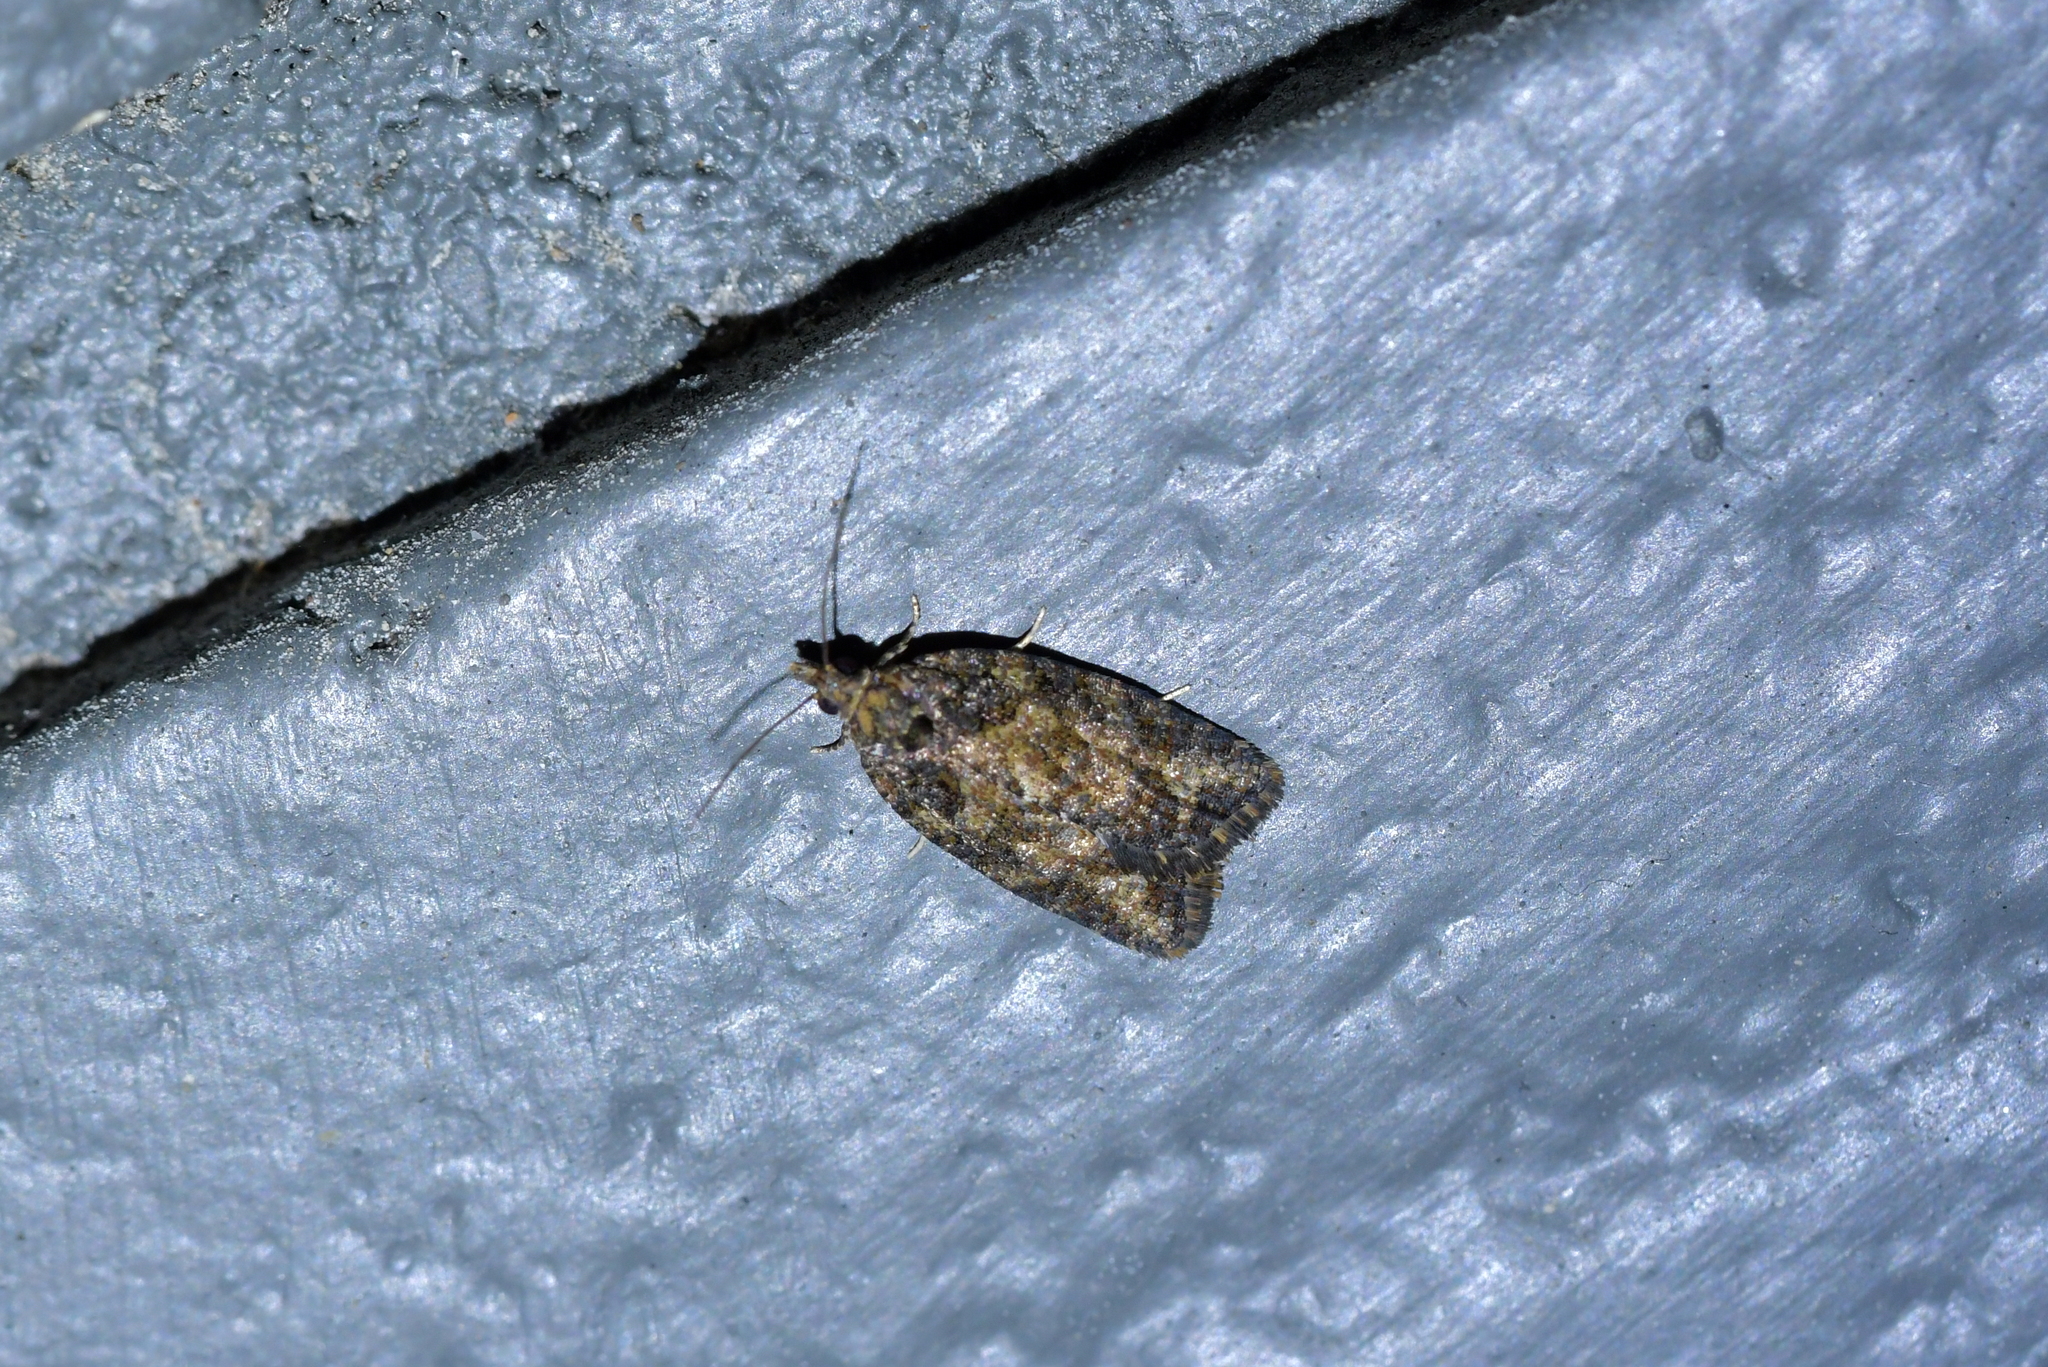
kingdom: Animalia
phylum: Arthropoda
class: Insecta
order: Lepidoptera
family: Tortricidae
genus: Capua
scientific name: Capua intractana
